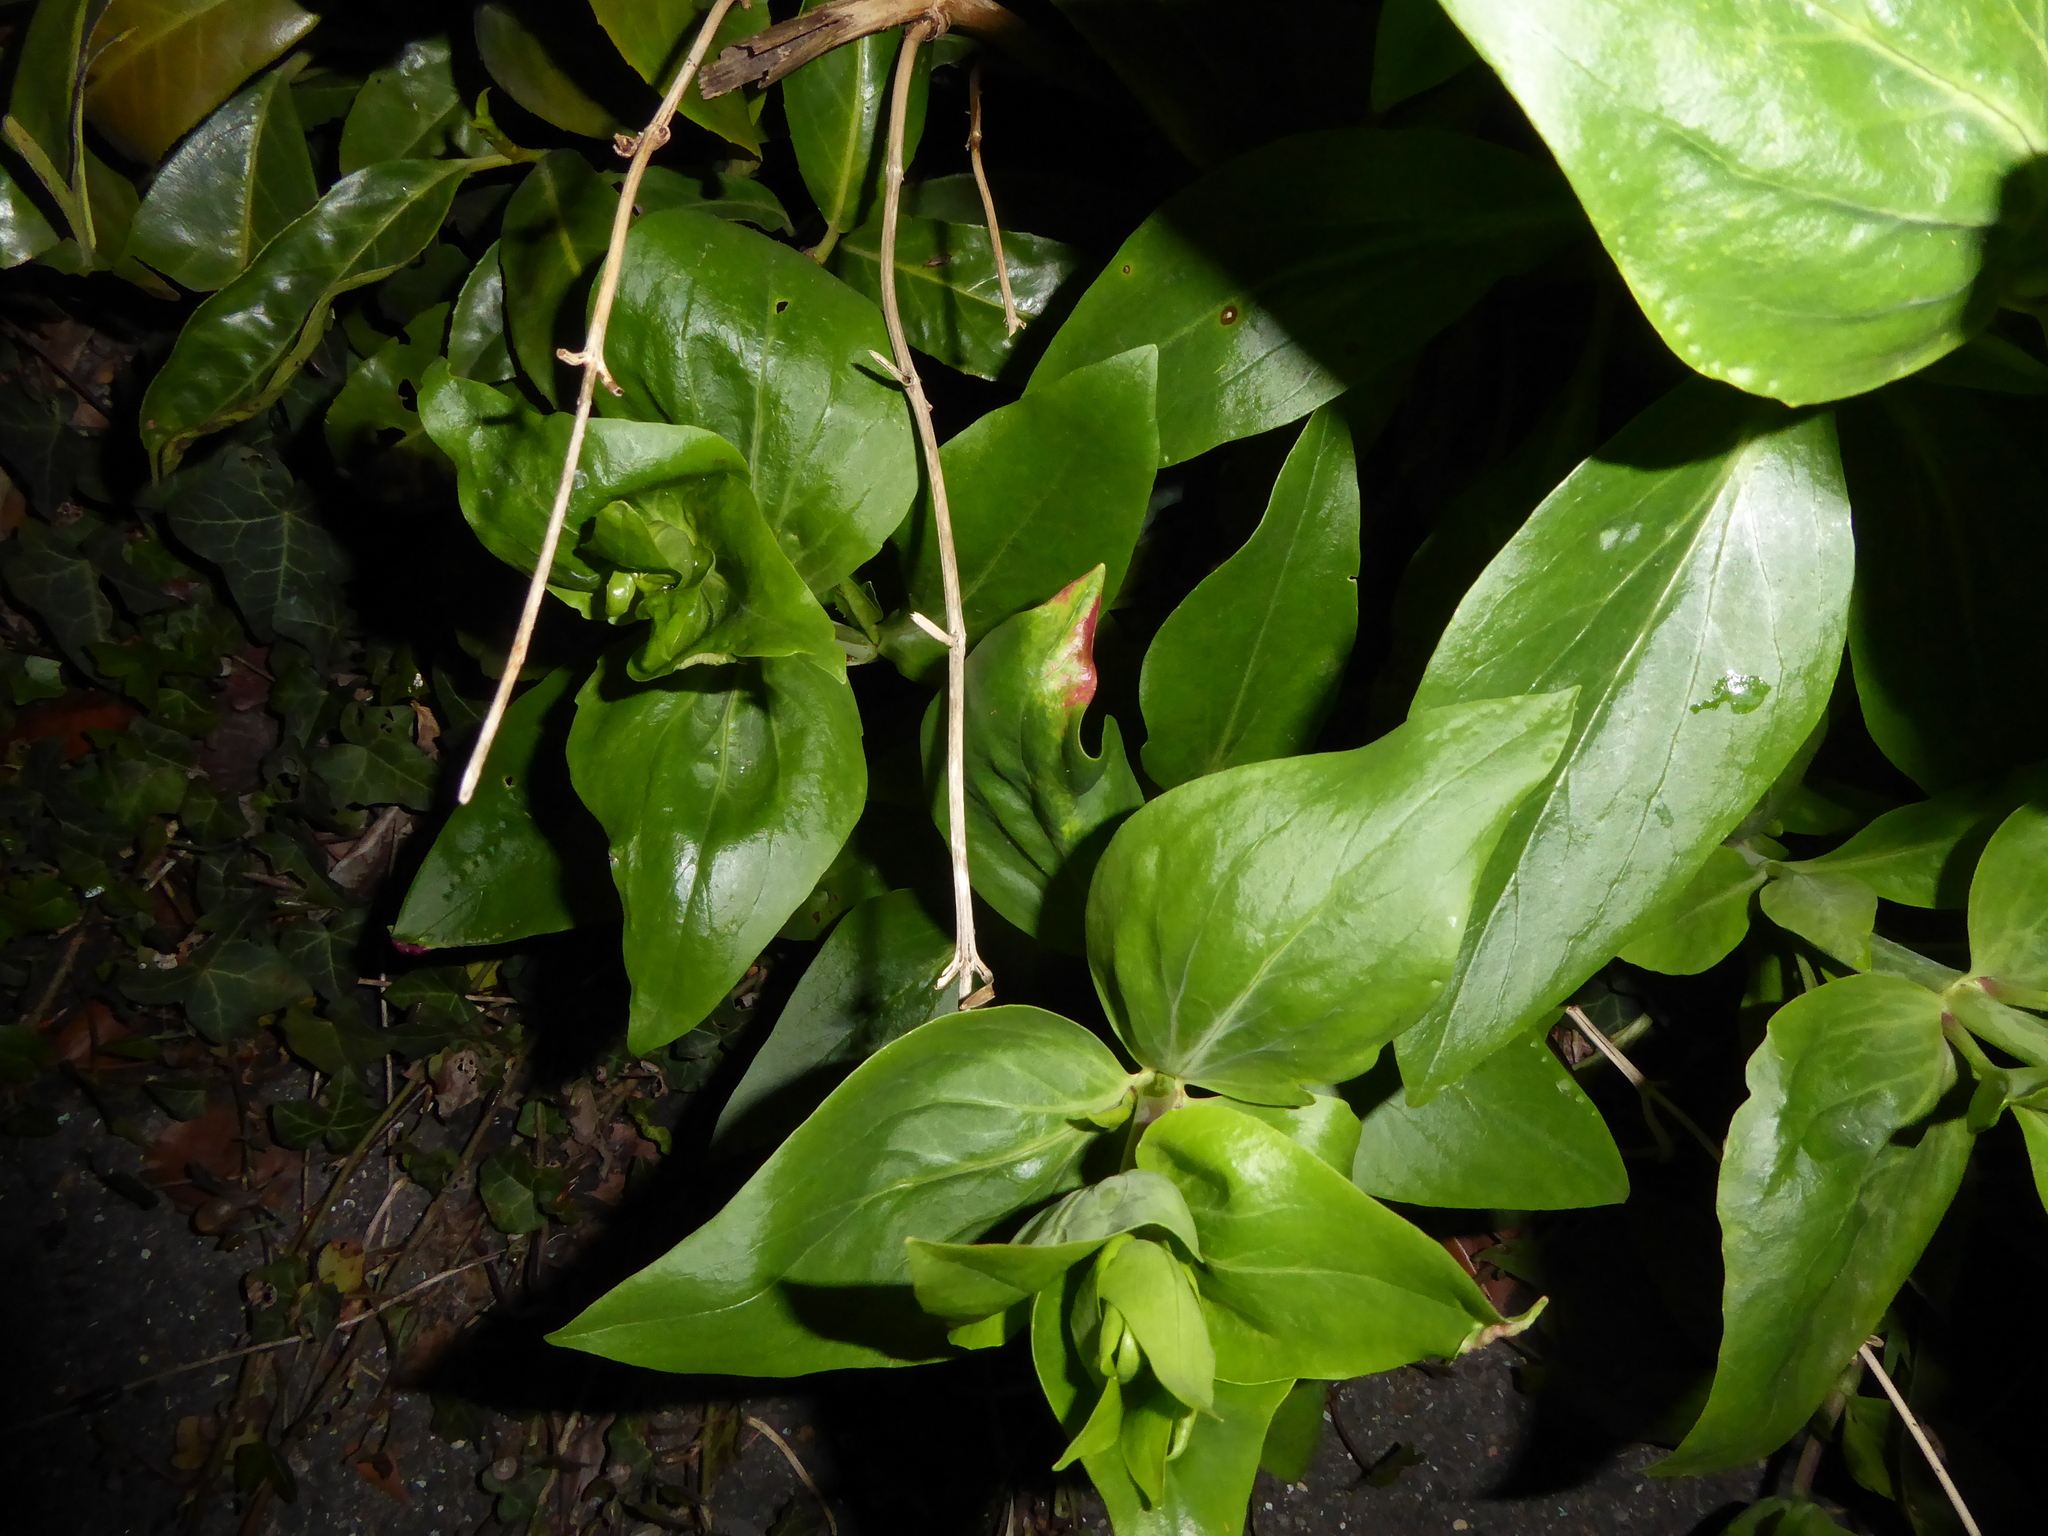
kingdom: Plantae
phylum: Tracheophyta
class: Magnoliopsida
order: Dipsacales
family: Caprifoliaceae
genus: Centranthus
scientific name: Centranthus ruber
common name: Red valerian
